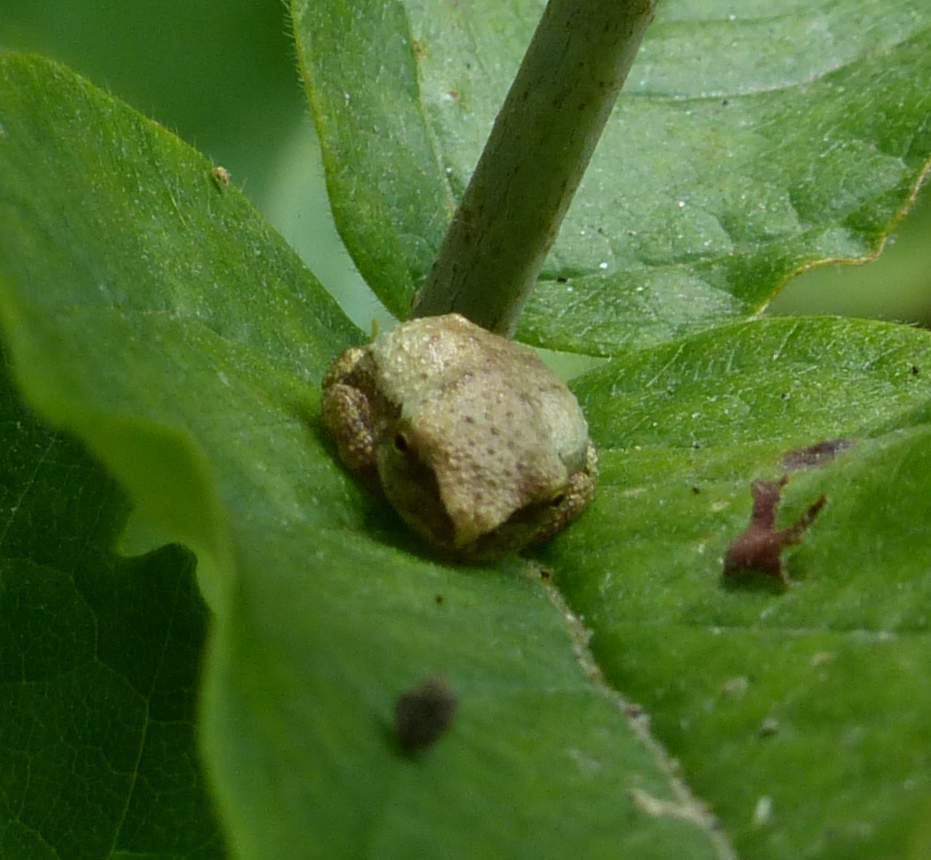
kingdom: Animalia
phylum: Chordata
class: Amphibia
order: Anura
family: Hylidae
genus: Pseudacris
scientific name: Pseudacris crucifer
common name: Spring peeper
